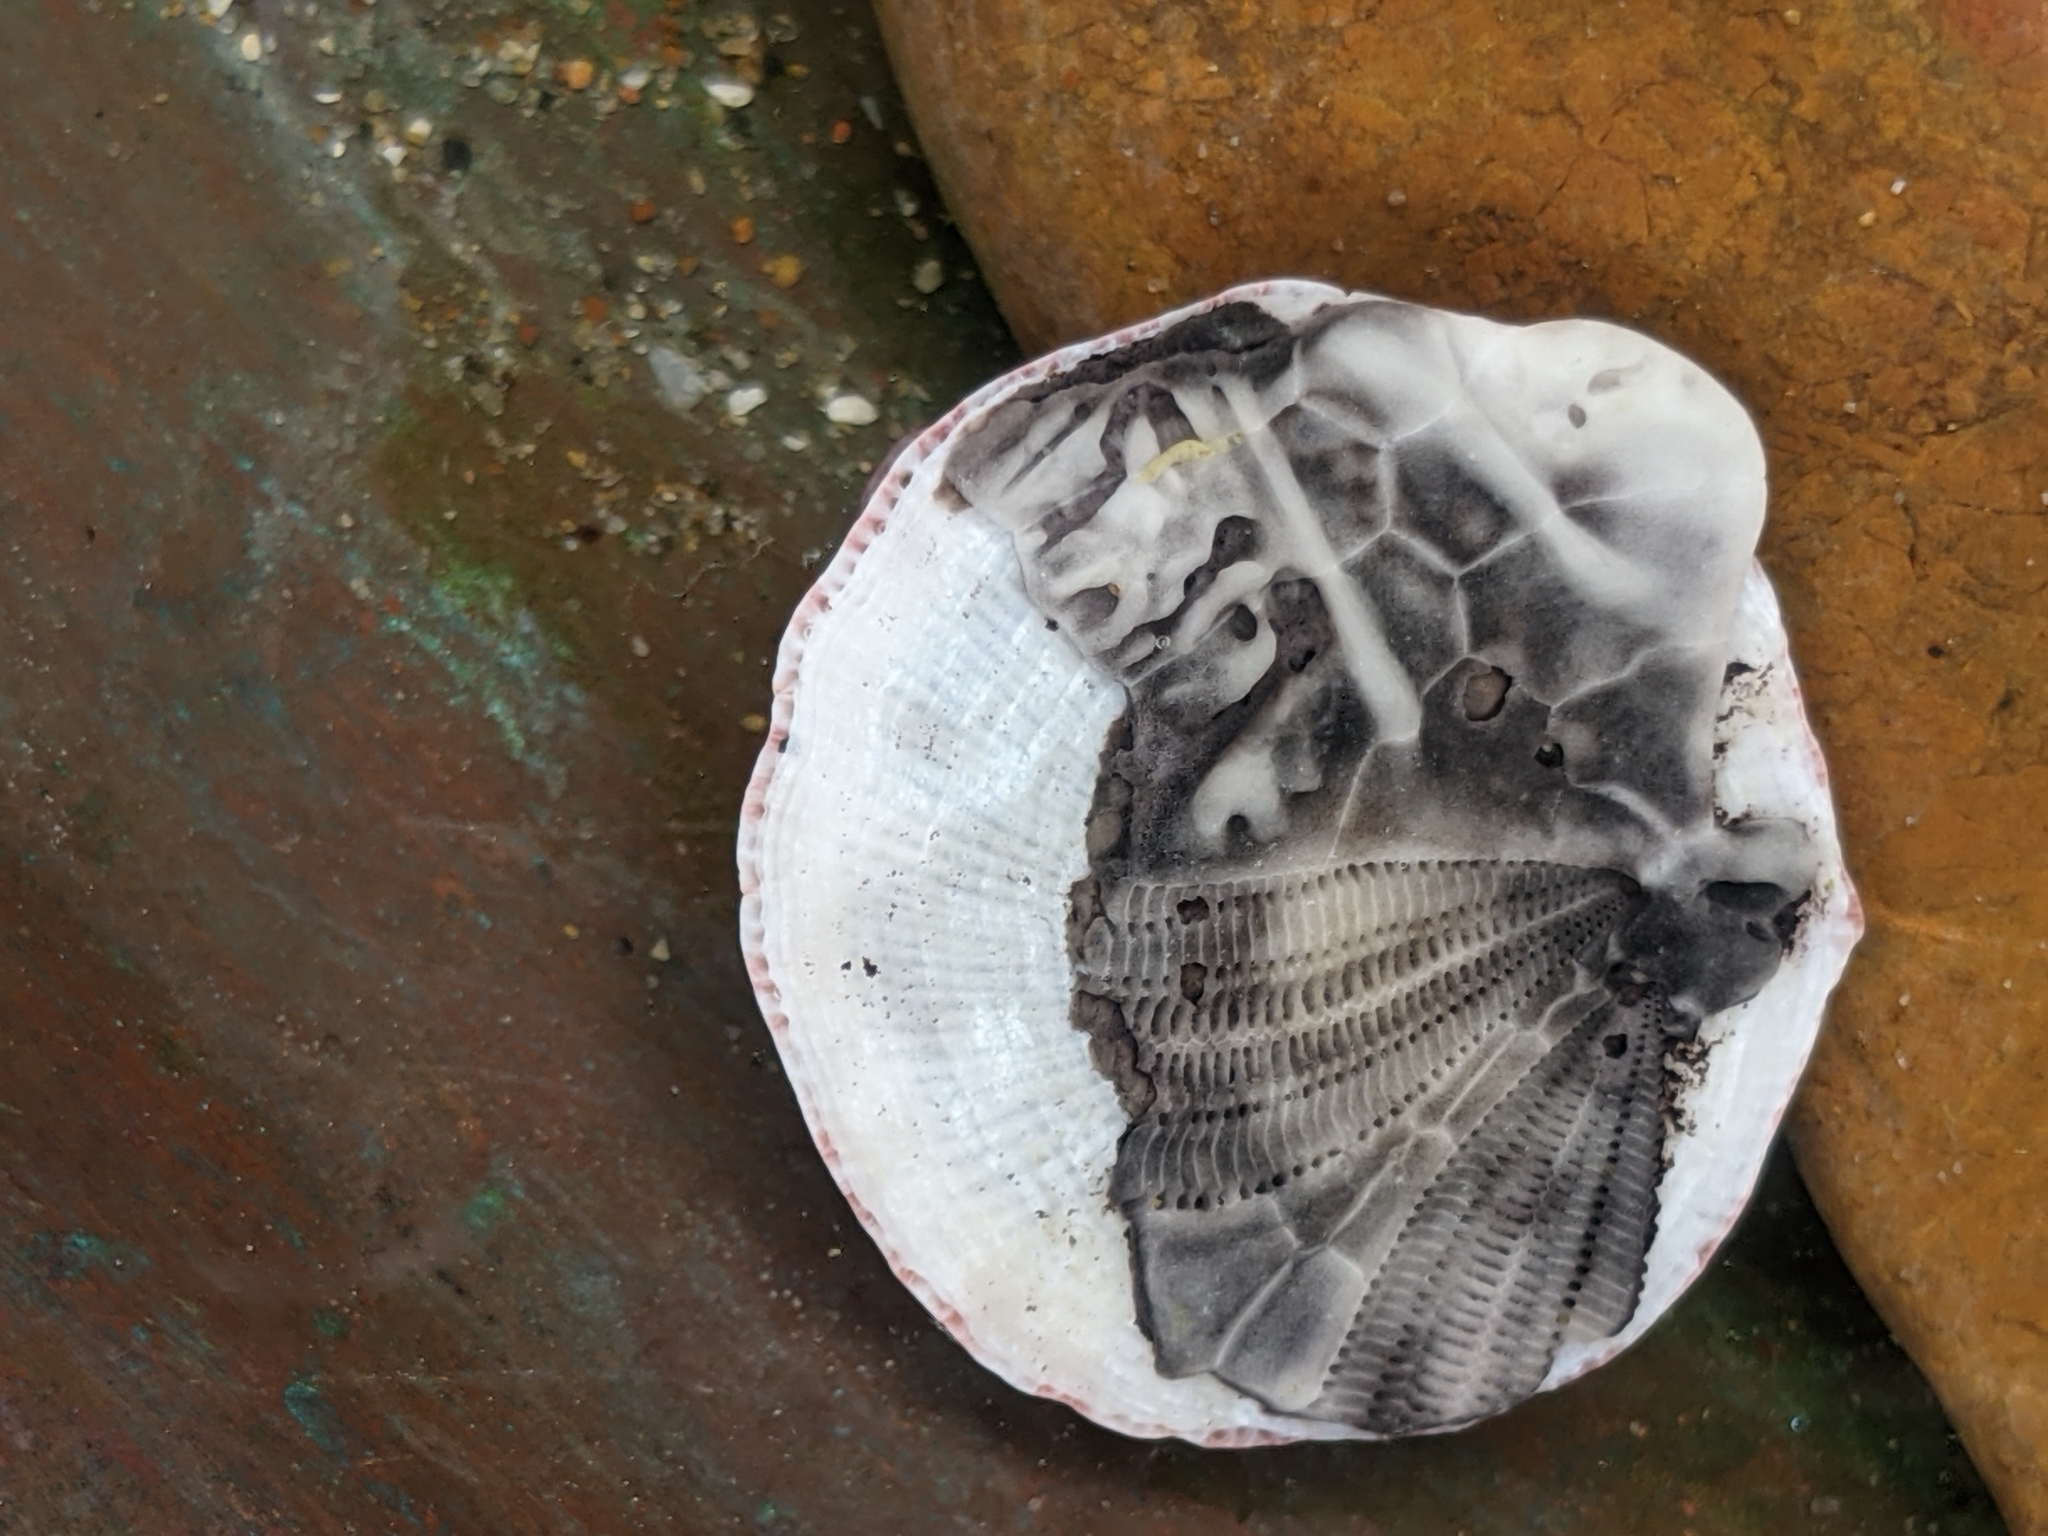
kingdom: Animalia
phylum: Arthropoda
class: Maxillopoda
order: Sessilia
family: Balanidae
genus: Paraconcavus
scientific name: Paraconcavus pacificus
